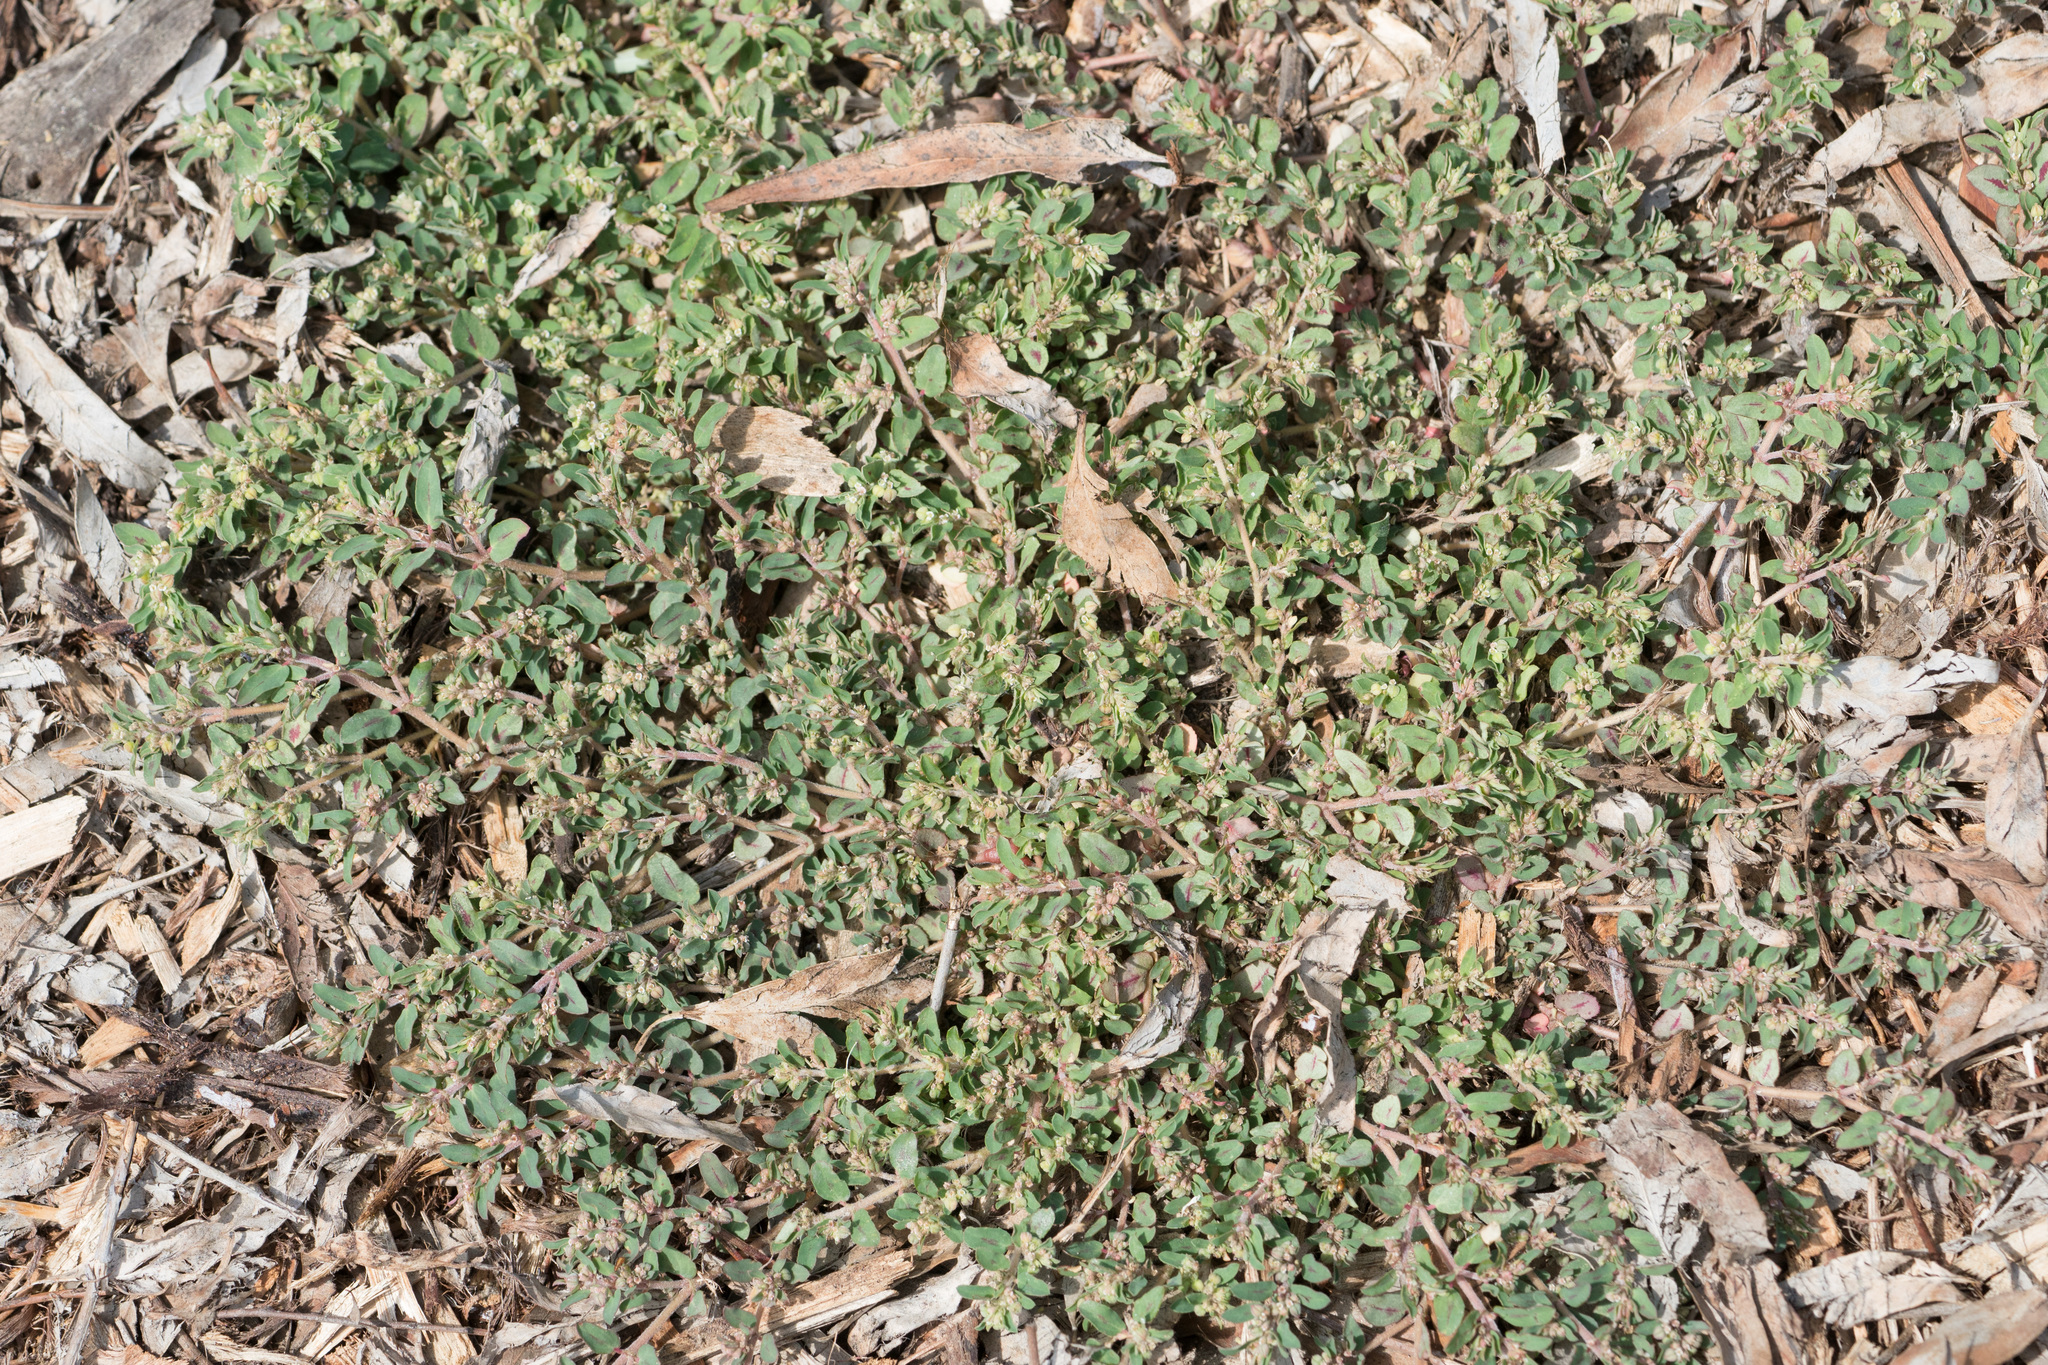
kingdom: Plantae
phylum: Tracheophyta
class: Magnoliopsida
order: Malpighiales
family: Euphorbiaceae
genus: Euphorbia
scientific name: Euphorbia maculata
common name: Spotted spurge
